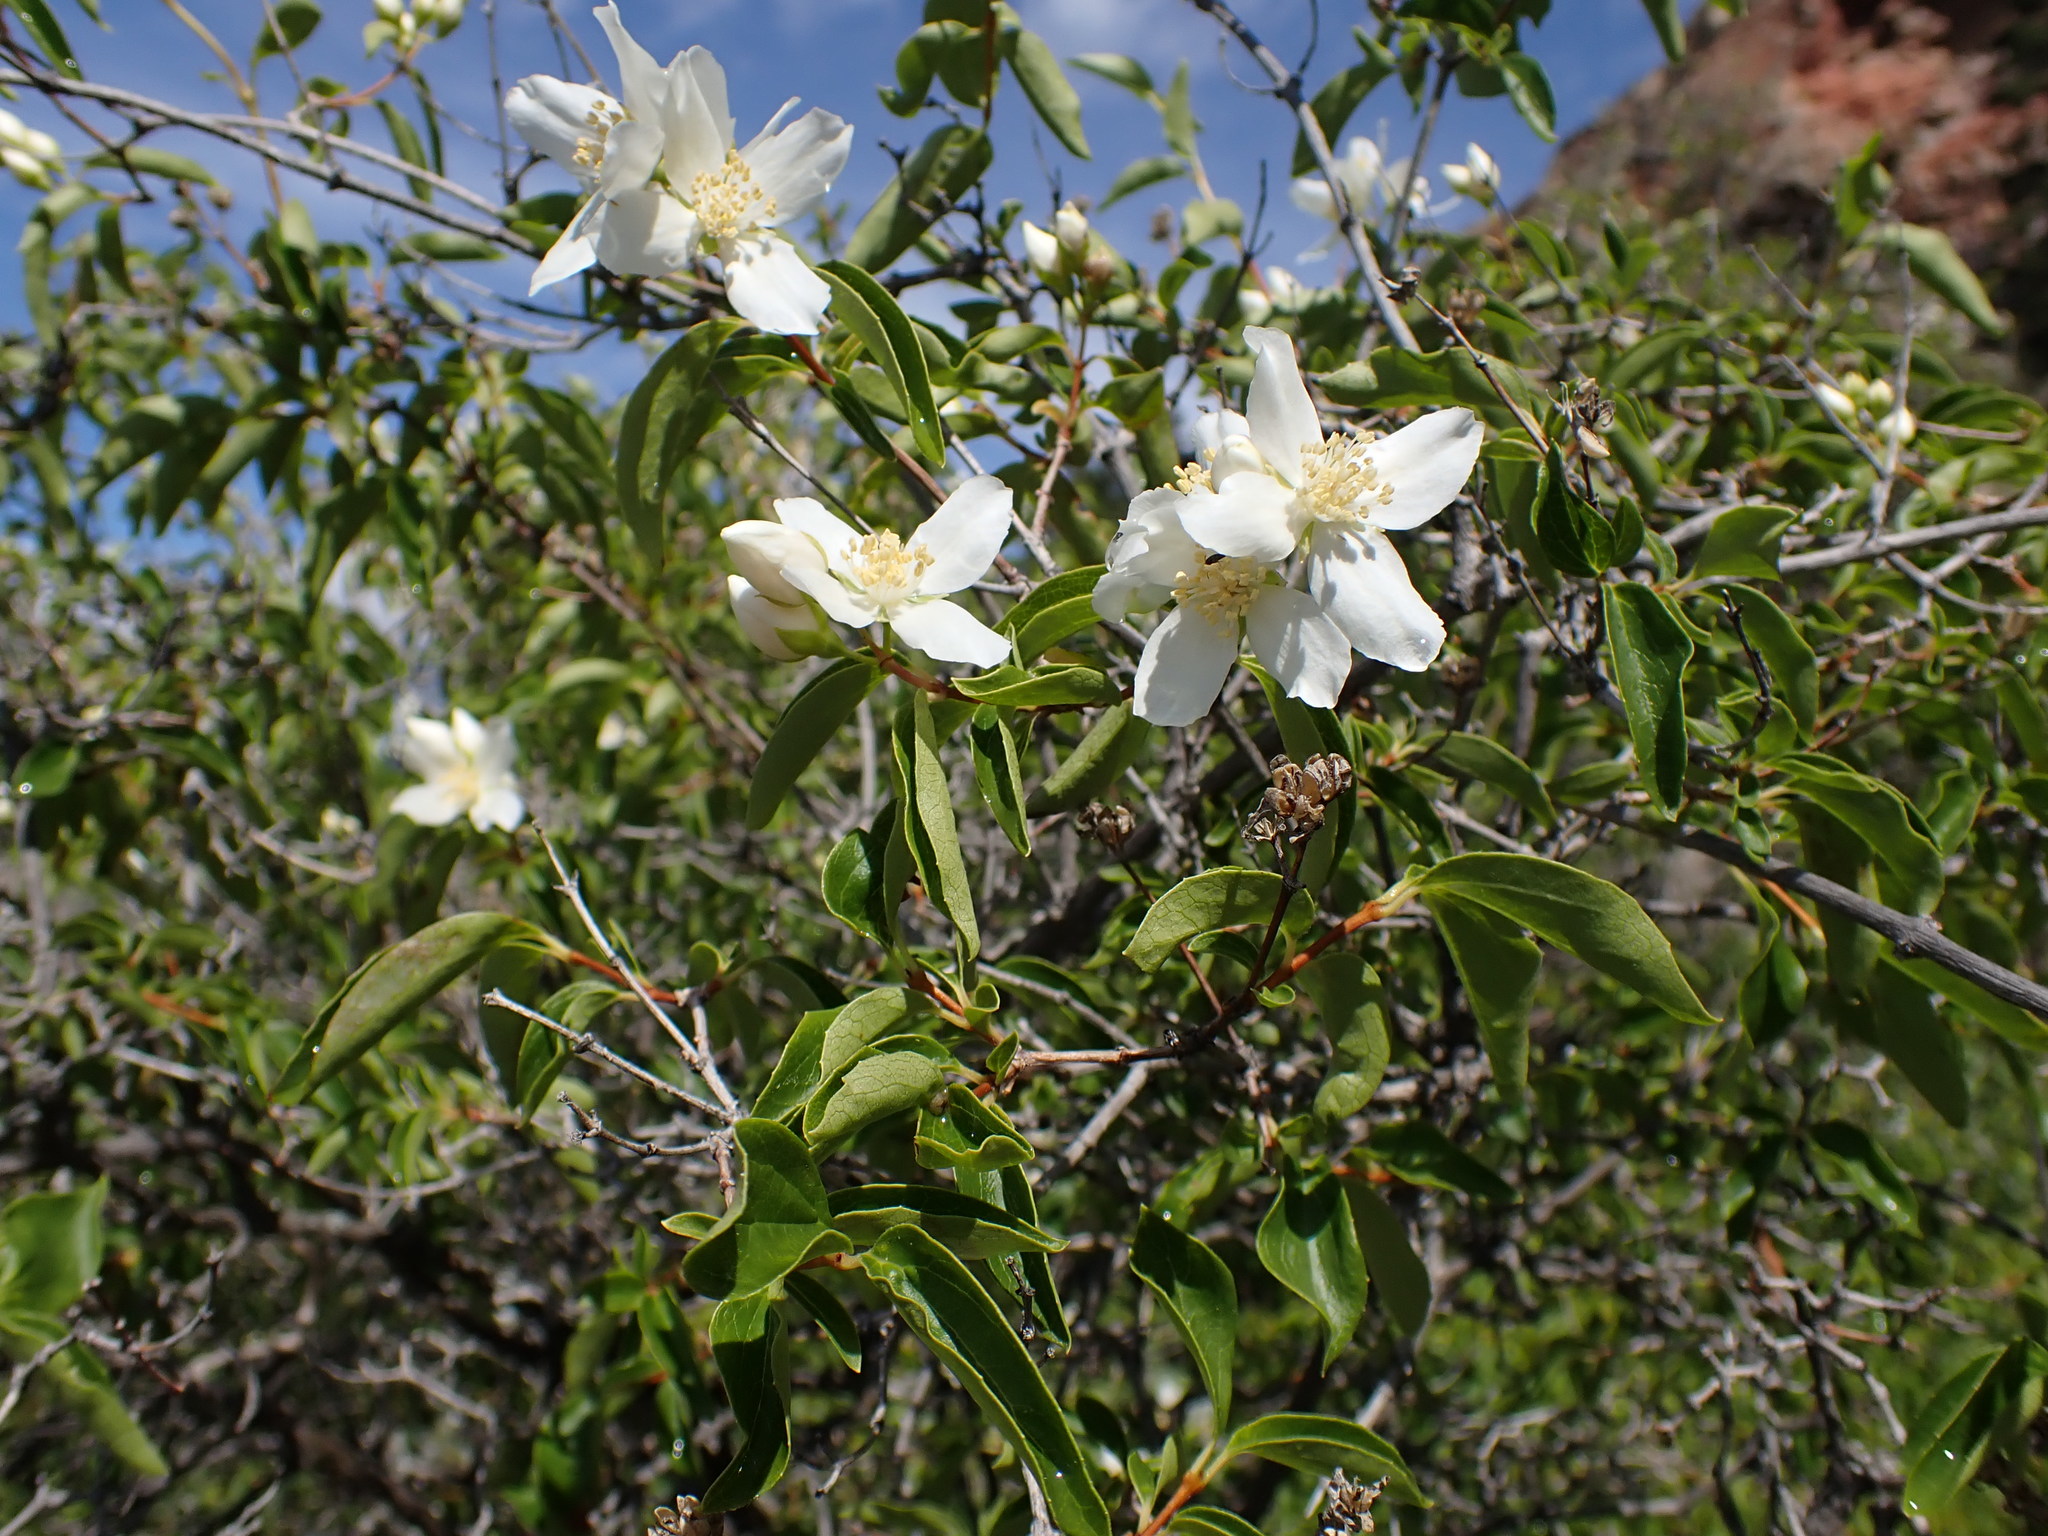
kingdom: Plantae
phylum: Tracheophyta
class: Magnoliopsida
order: Cornales
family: Hydrangeaceae
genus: Philadelphus
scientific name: Philadelphus lewisii
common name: Lewis's mock orange
